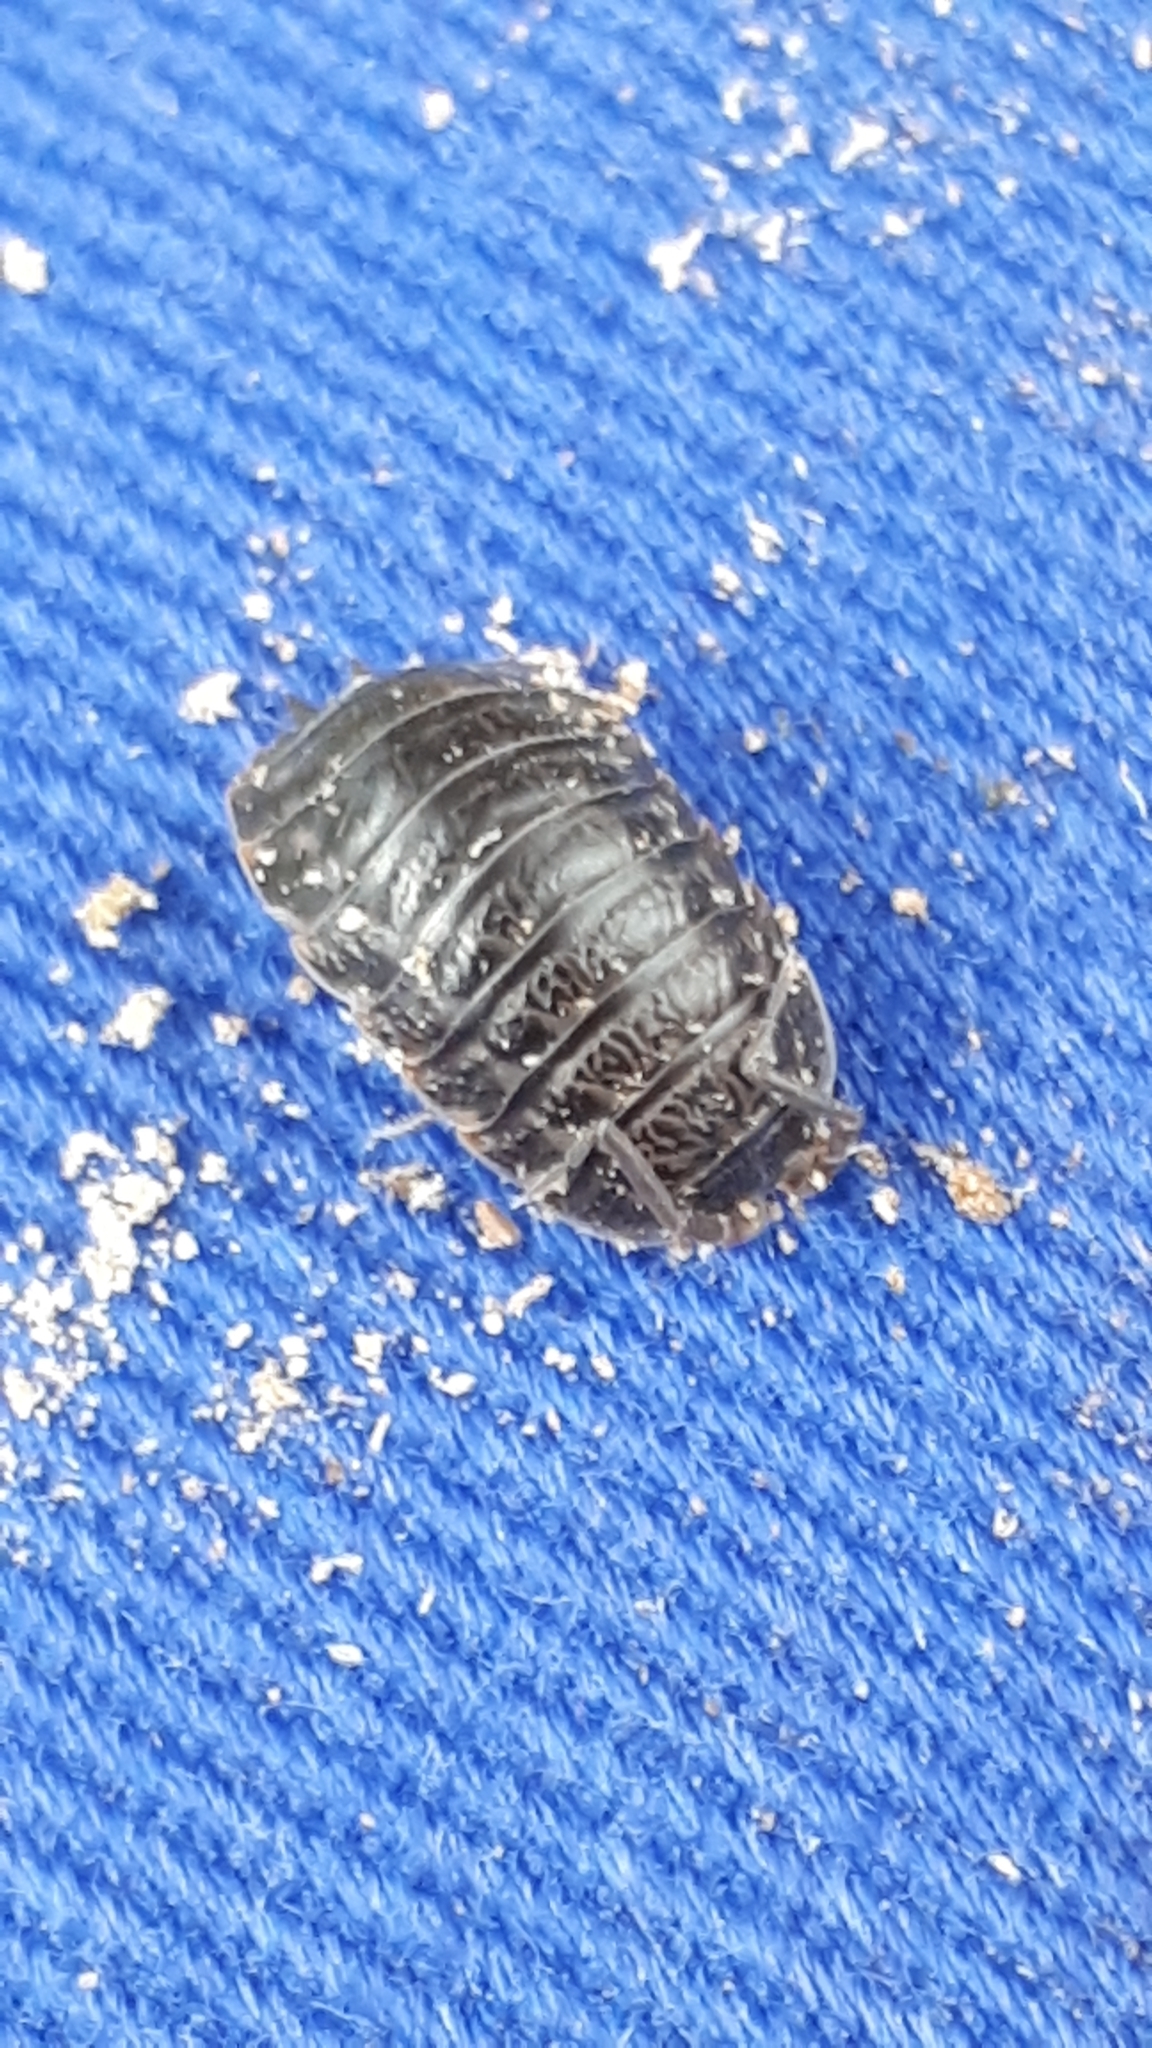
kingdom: Animalia
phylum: Arthropoda
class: Malacostraca
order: Isopoda
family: Trachelipodidae
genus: Trachelipus
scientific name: Trachelipus rathkii
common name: Isopod
